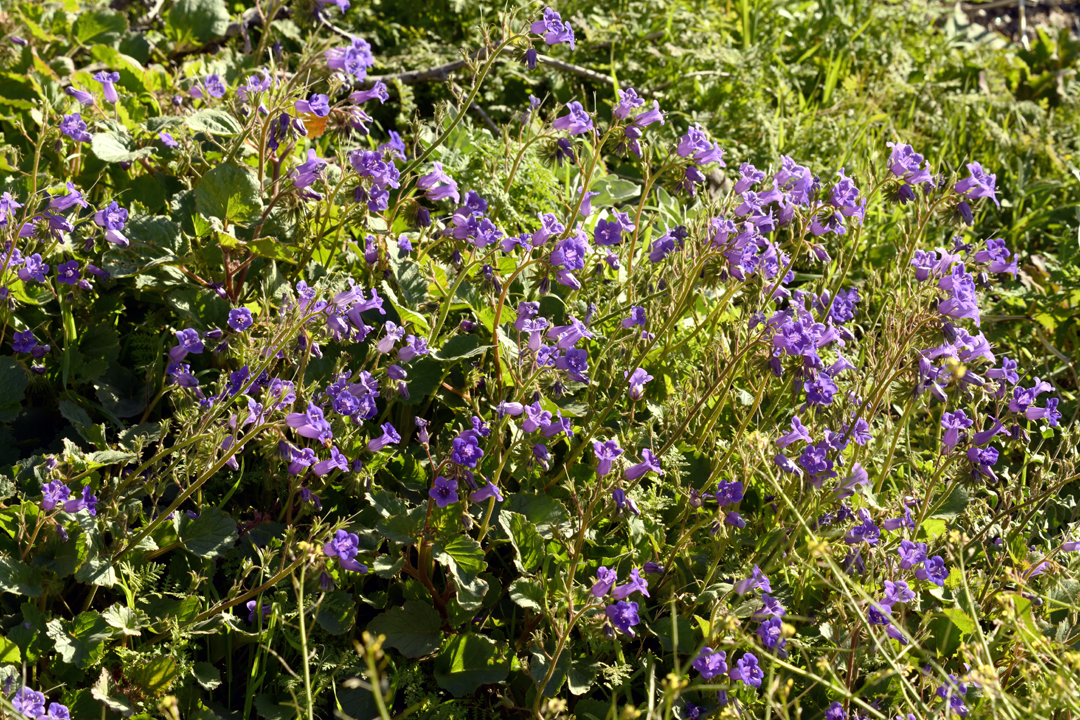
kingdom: Plantae
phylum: Tracheophyta
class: Magnoliopsida
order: Boraginales
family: Hydrophyllaceae
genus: Phacelia
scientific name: Phacelia minor
